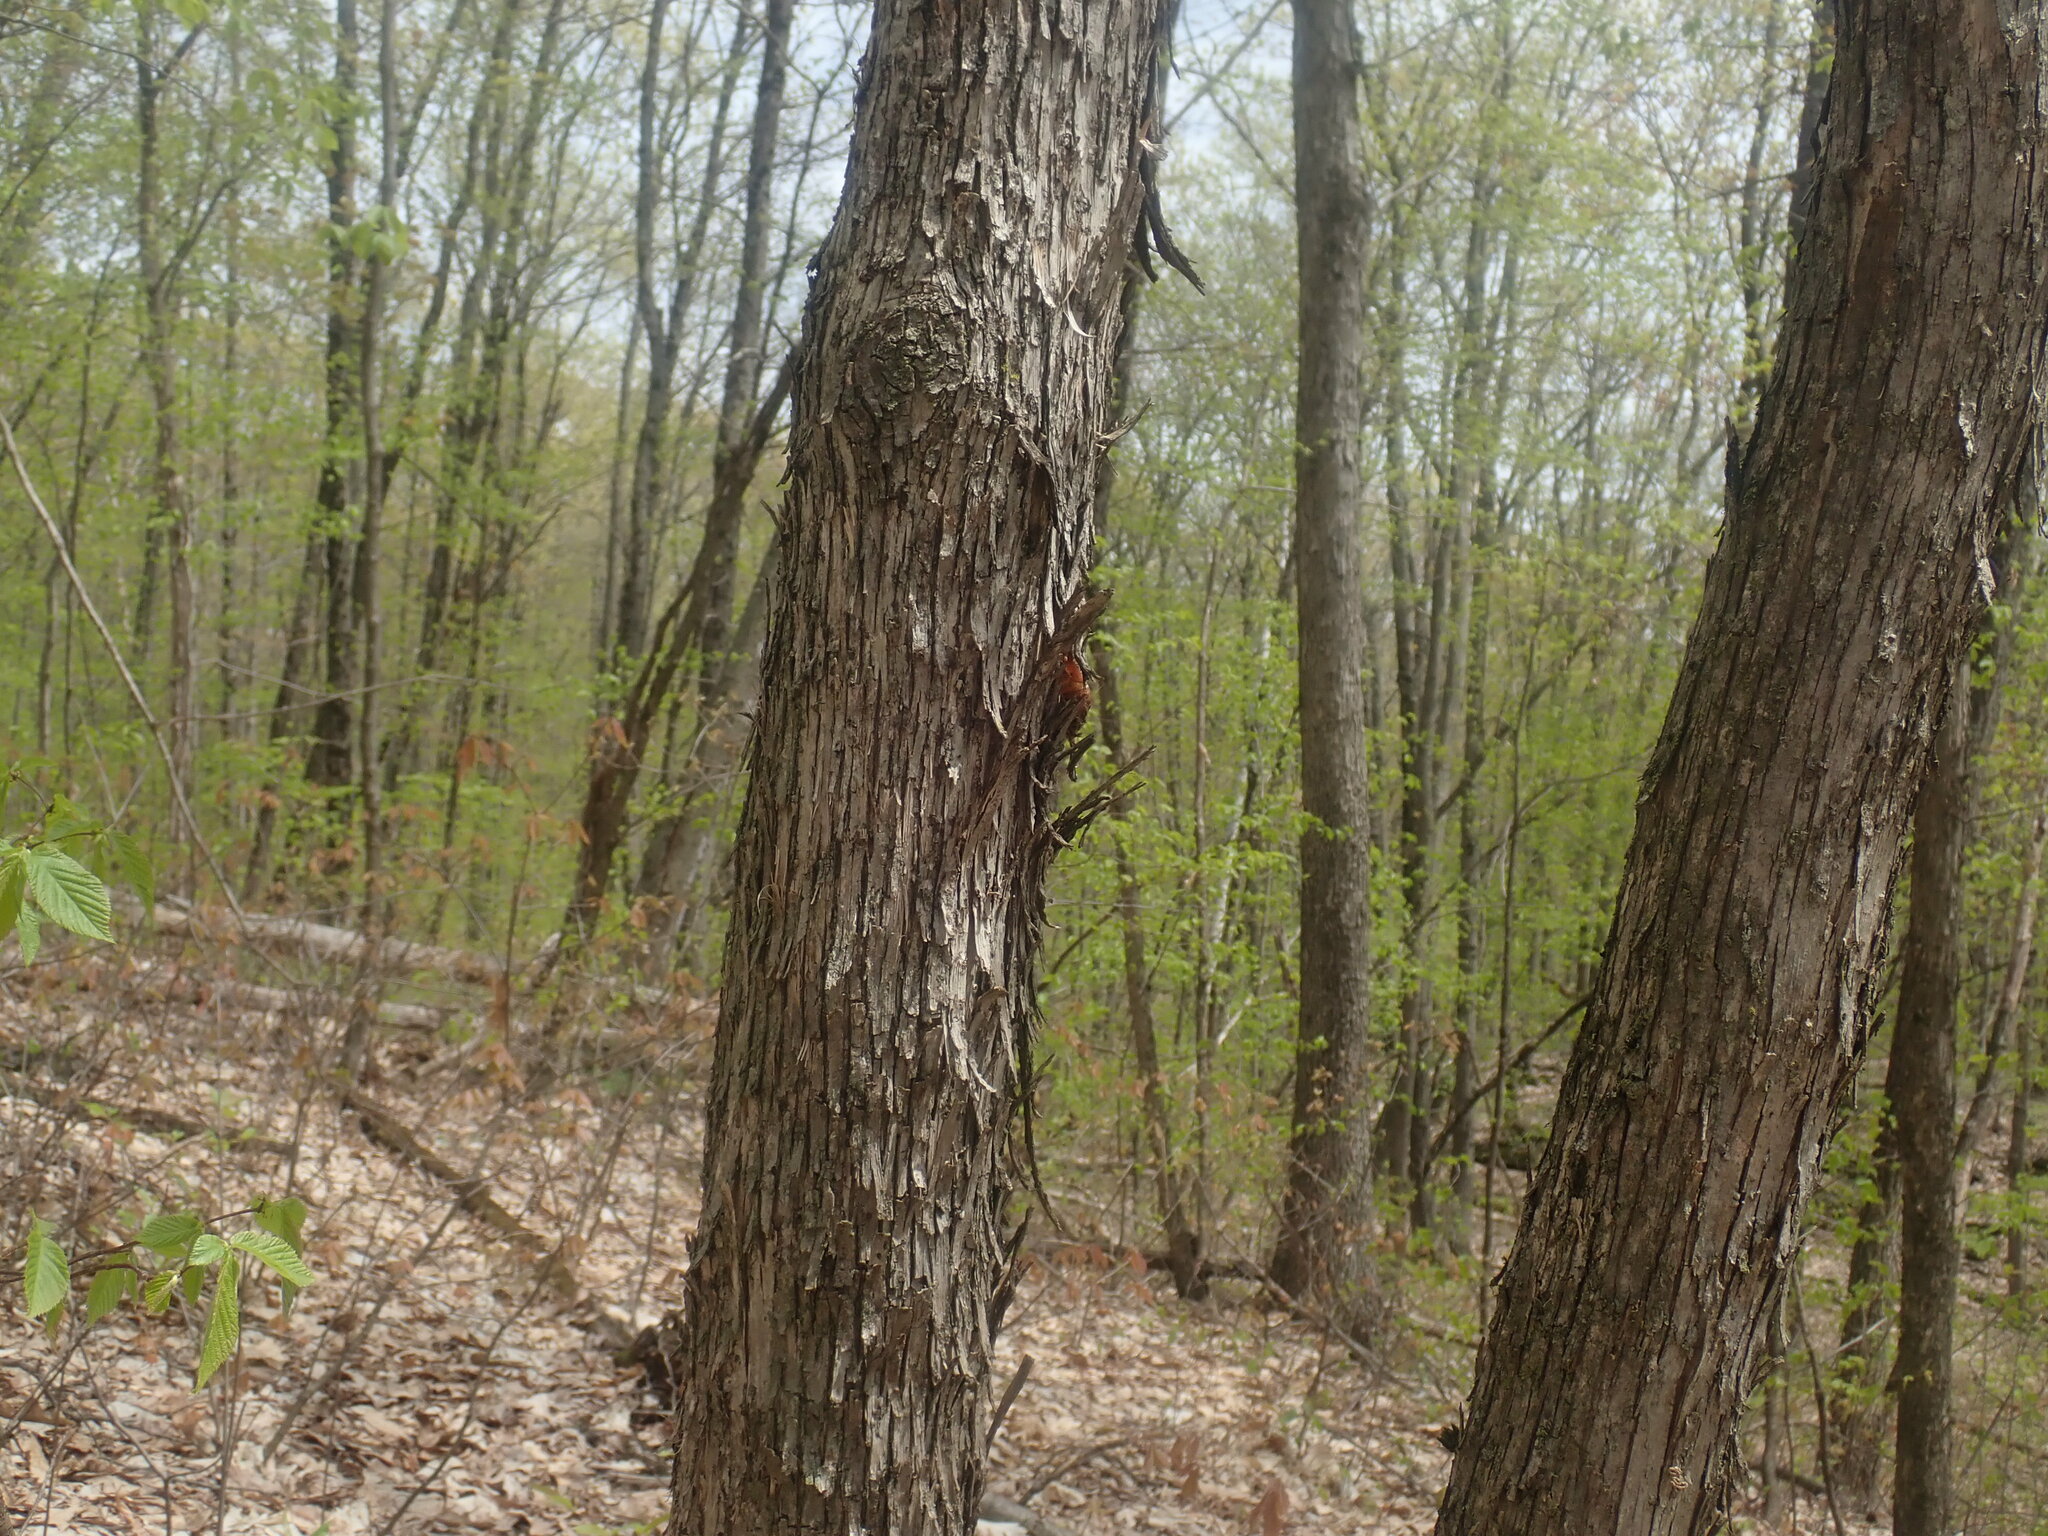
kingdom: Plantae
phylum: Tracheophyta
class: Magnoliopsida
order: Fagales
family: Betulaceae
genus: Ostrya
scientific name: Ostrya virginiana
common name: Ironwood
